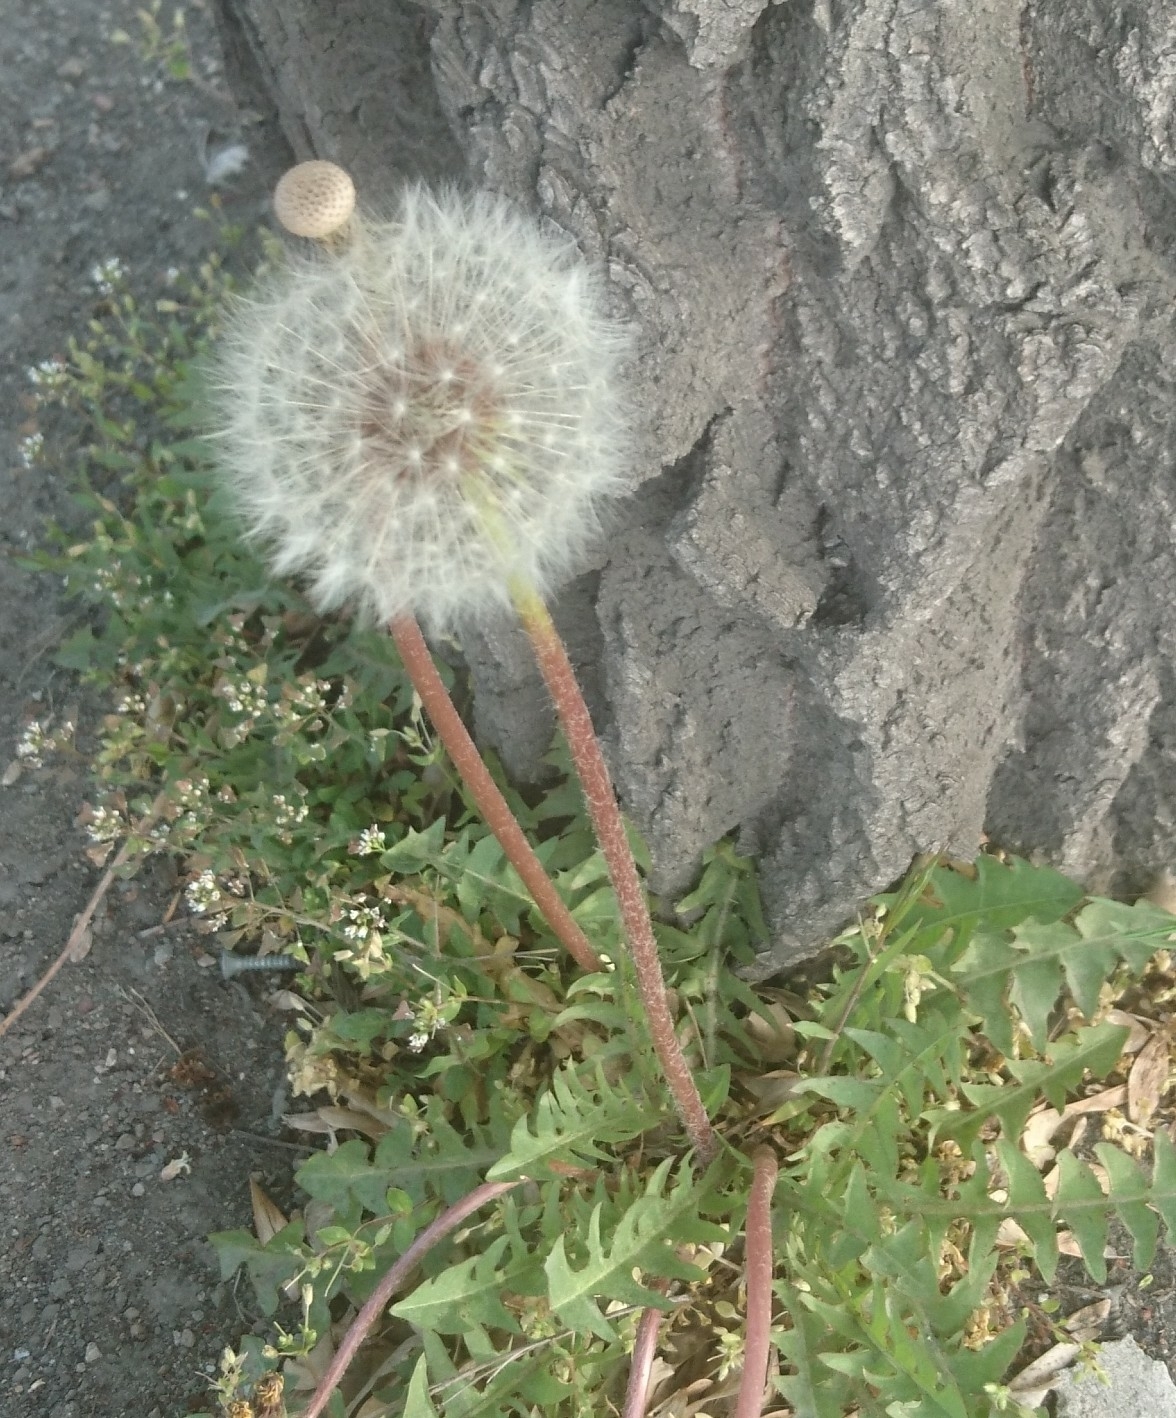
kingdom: Plantae
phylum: Tracheophyta
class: Magnoliopsida
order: Asterales
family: Asteraceae
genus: Taraxacum
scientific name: Taraxacum officinale
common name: Common dandelion
